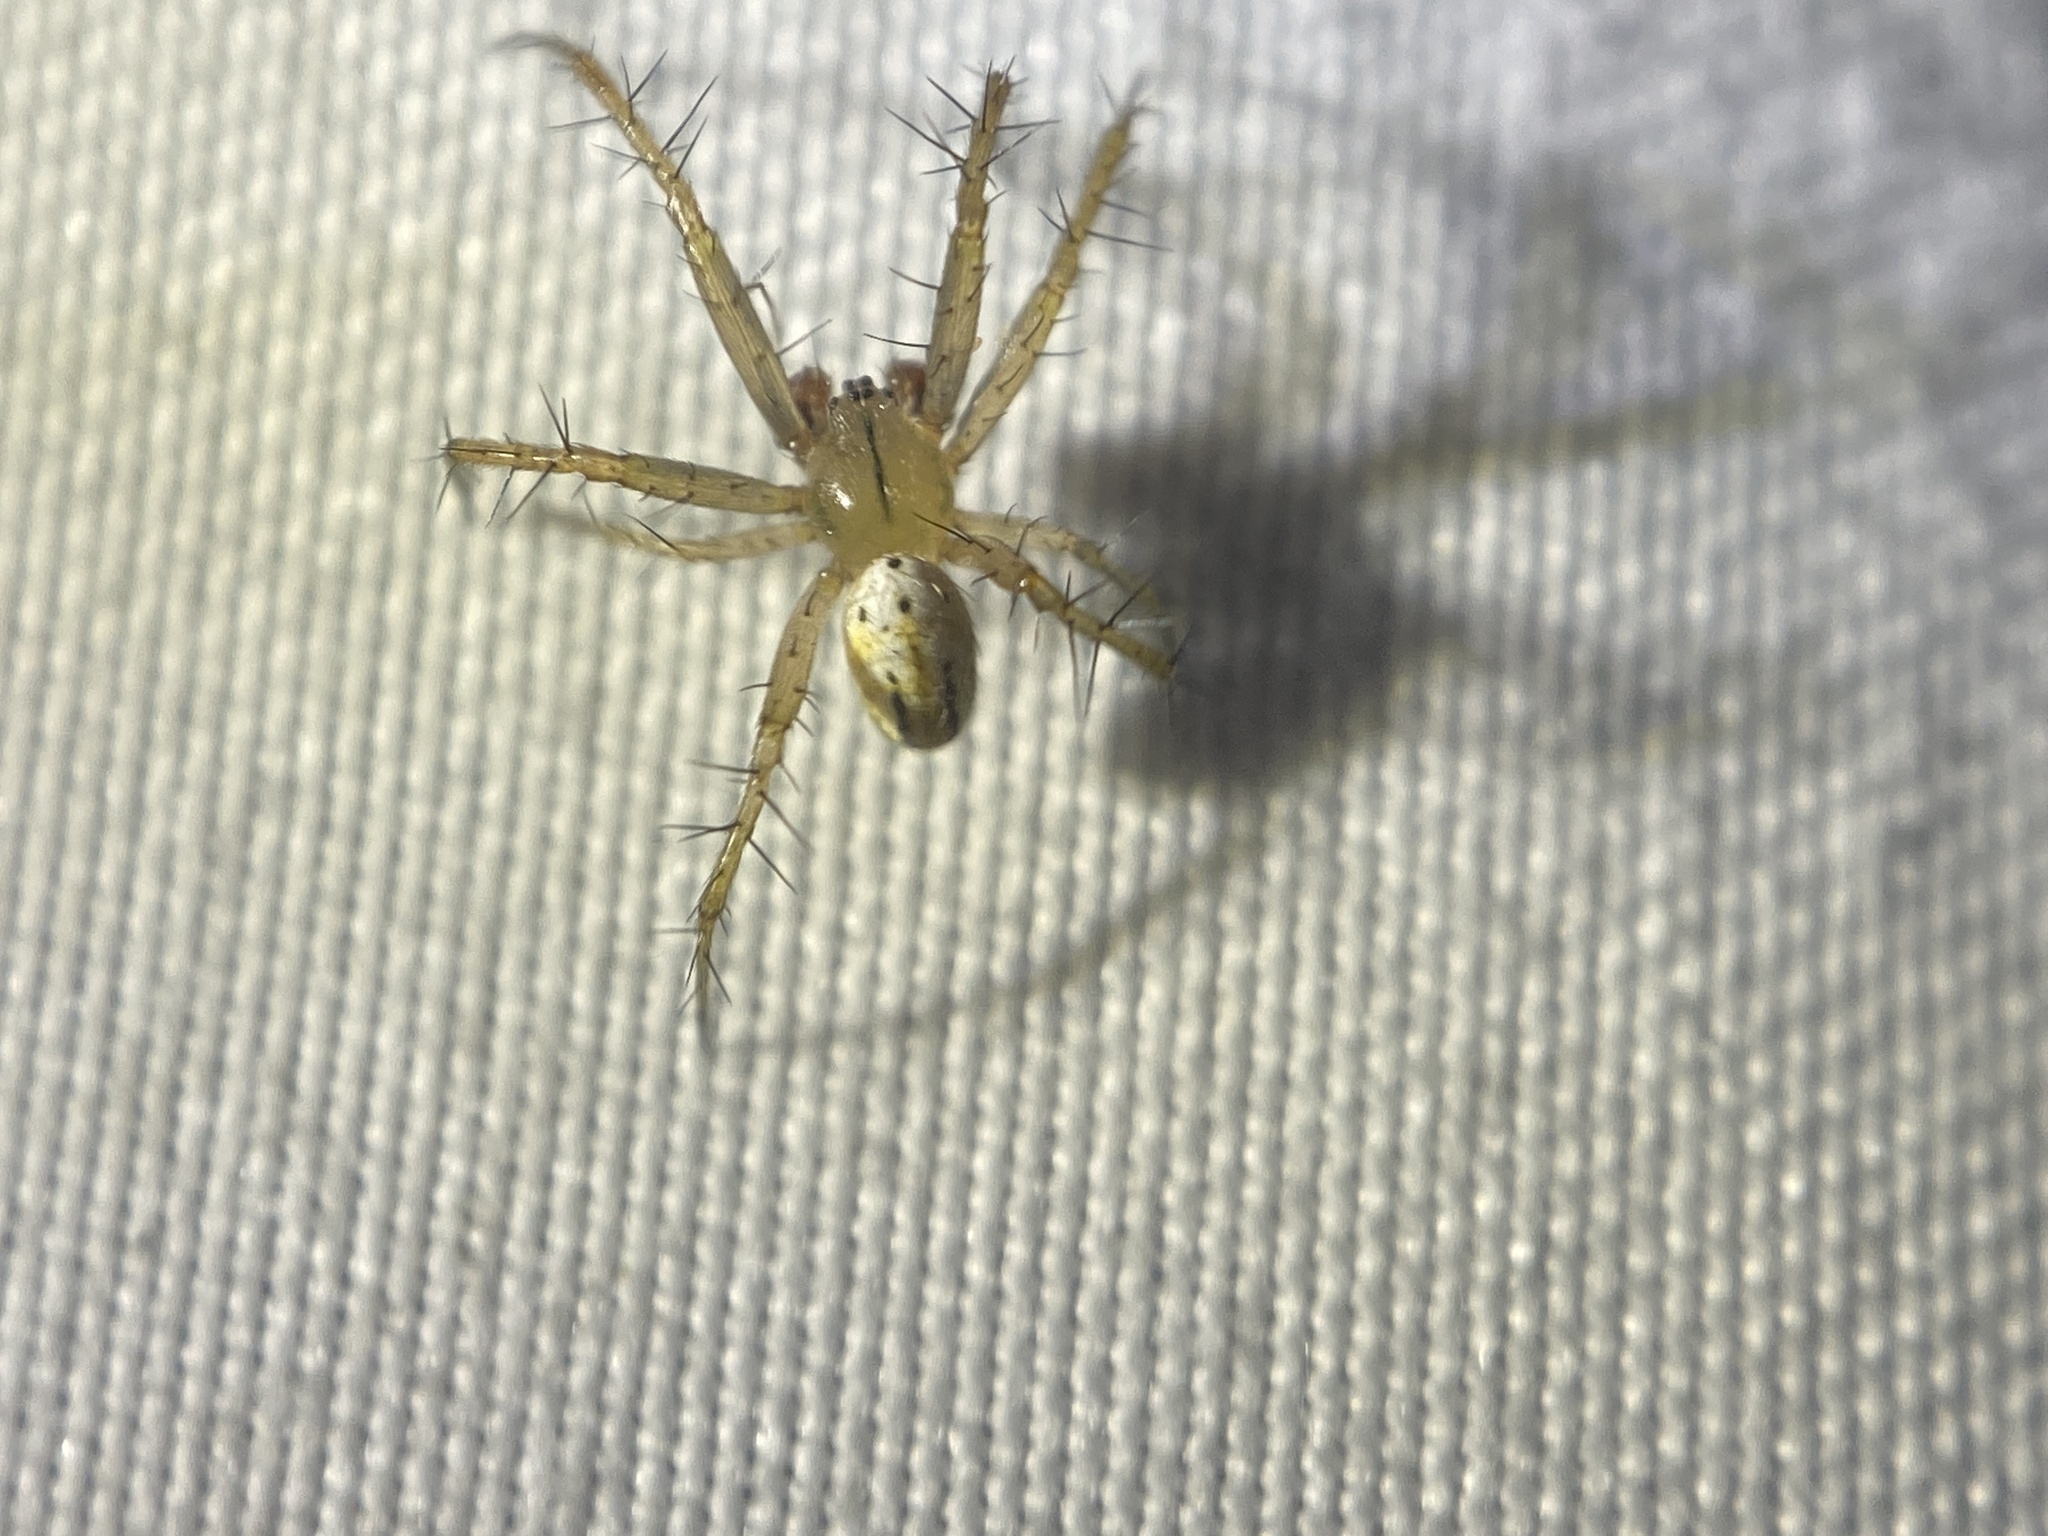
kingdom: Animalia
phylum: Arthropoda
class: Arachnida
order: Araneae
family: Araneidae
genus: Mangora
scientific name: Mangora gibberosa
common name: Lined orbweaver
